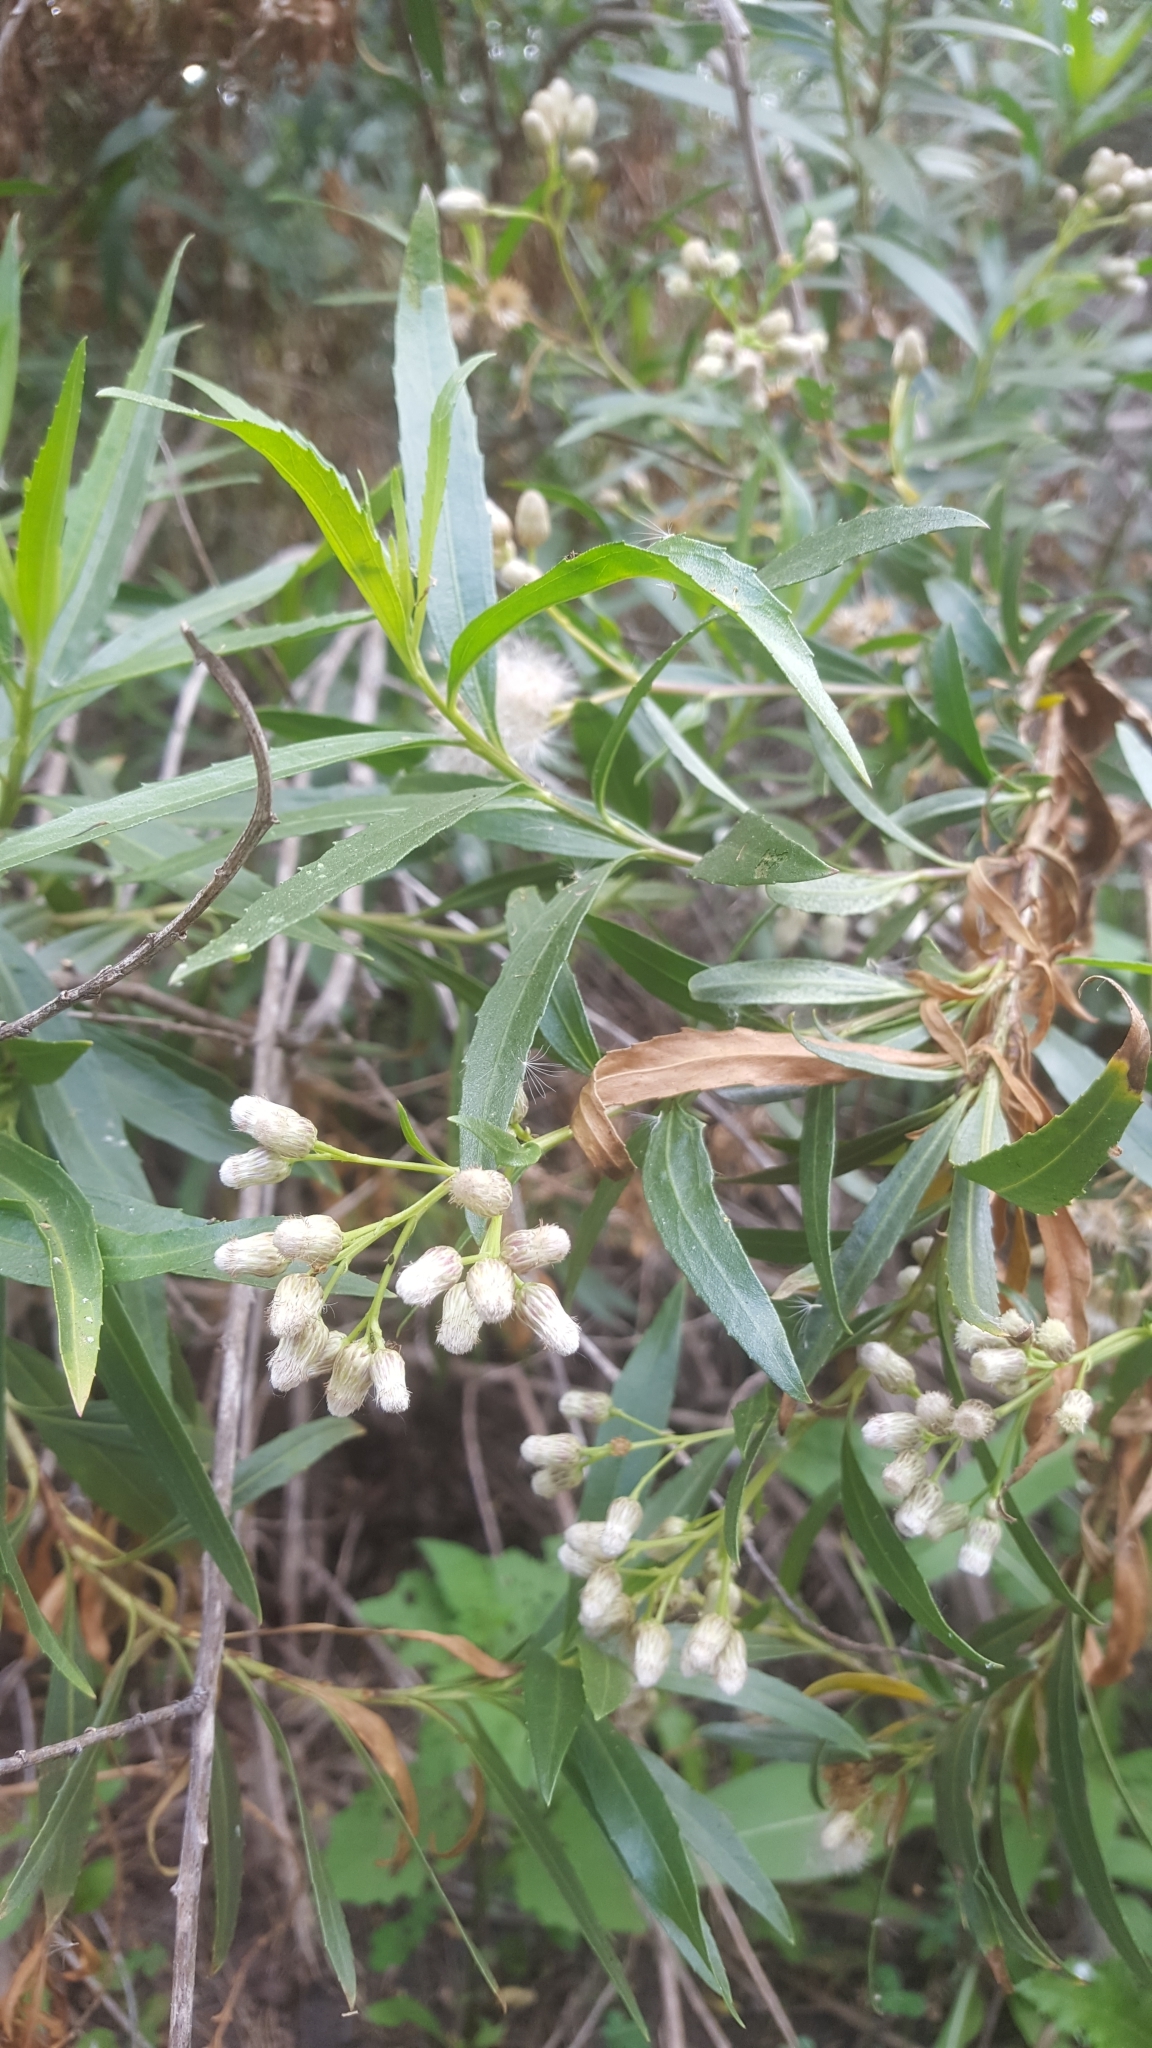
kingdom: Plantae
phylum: Tracheophyta
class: Magnoliopsida
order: Asterales
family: Asteraceae
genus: Baccharis
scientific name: Baccharis salicifolia
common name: Sticky baccharis
